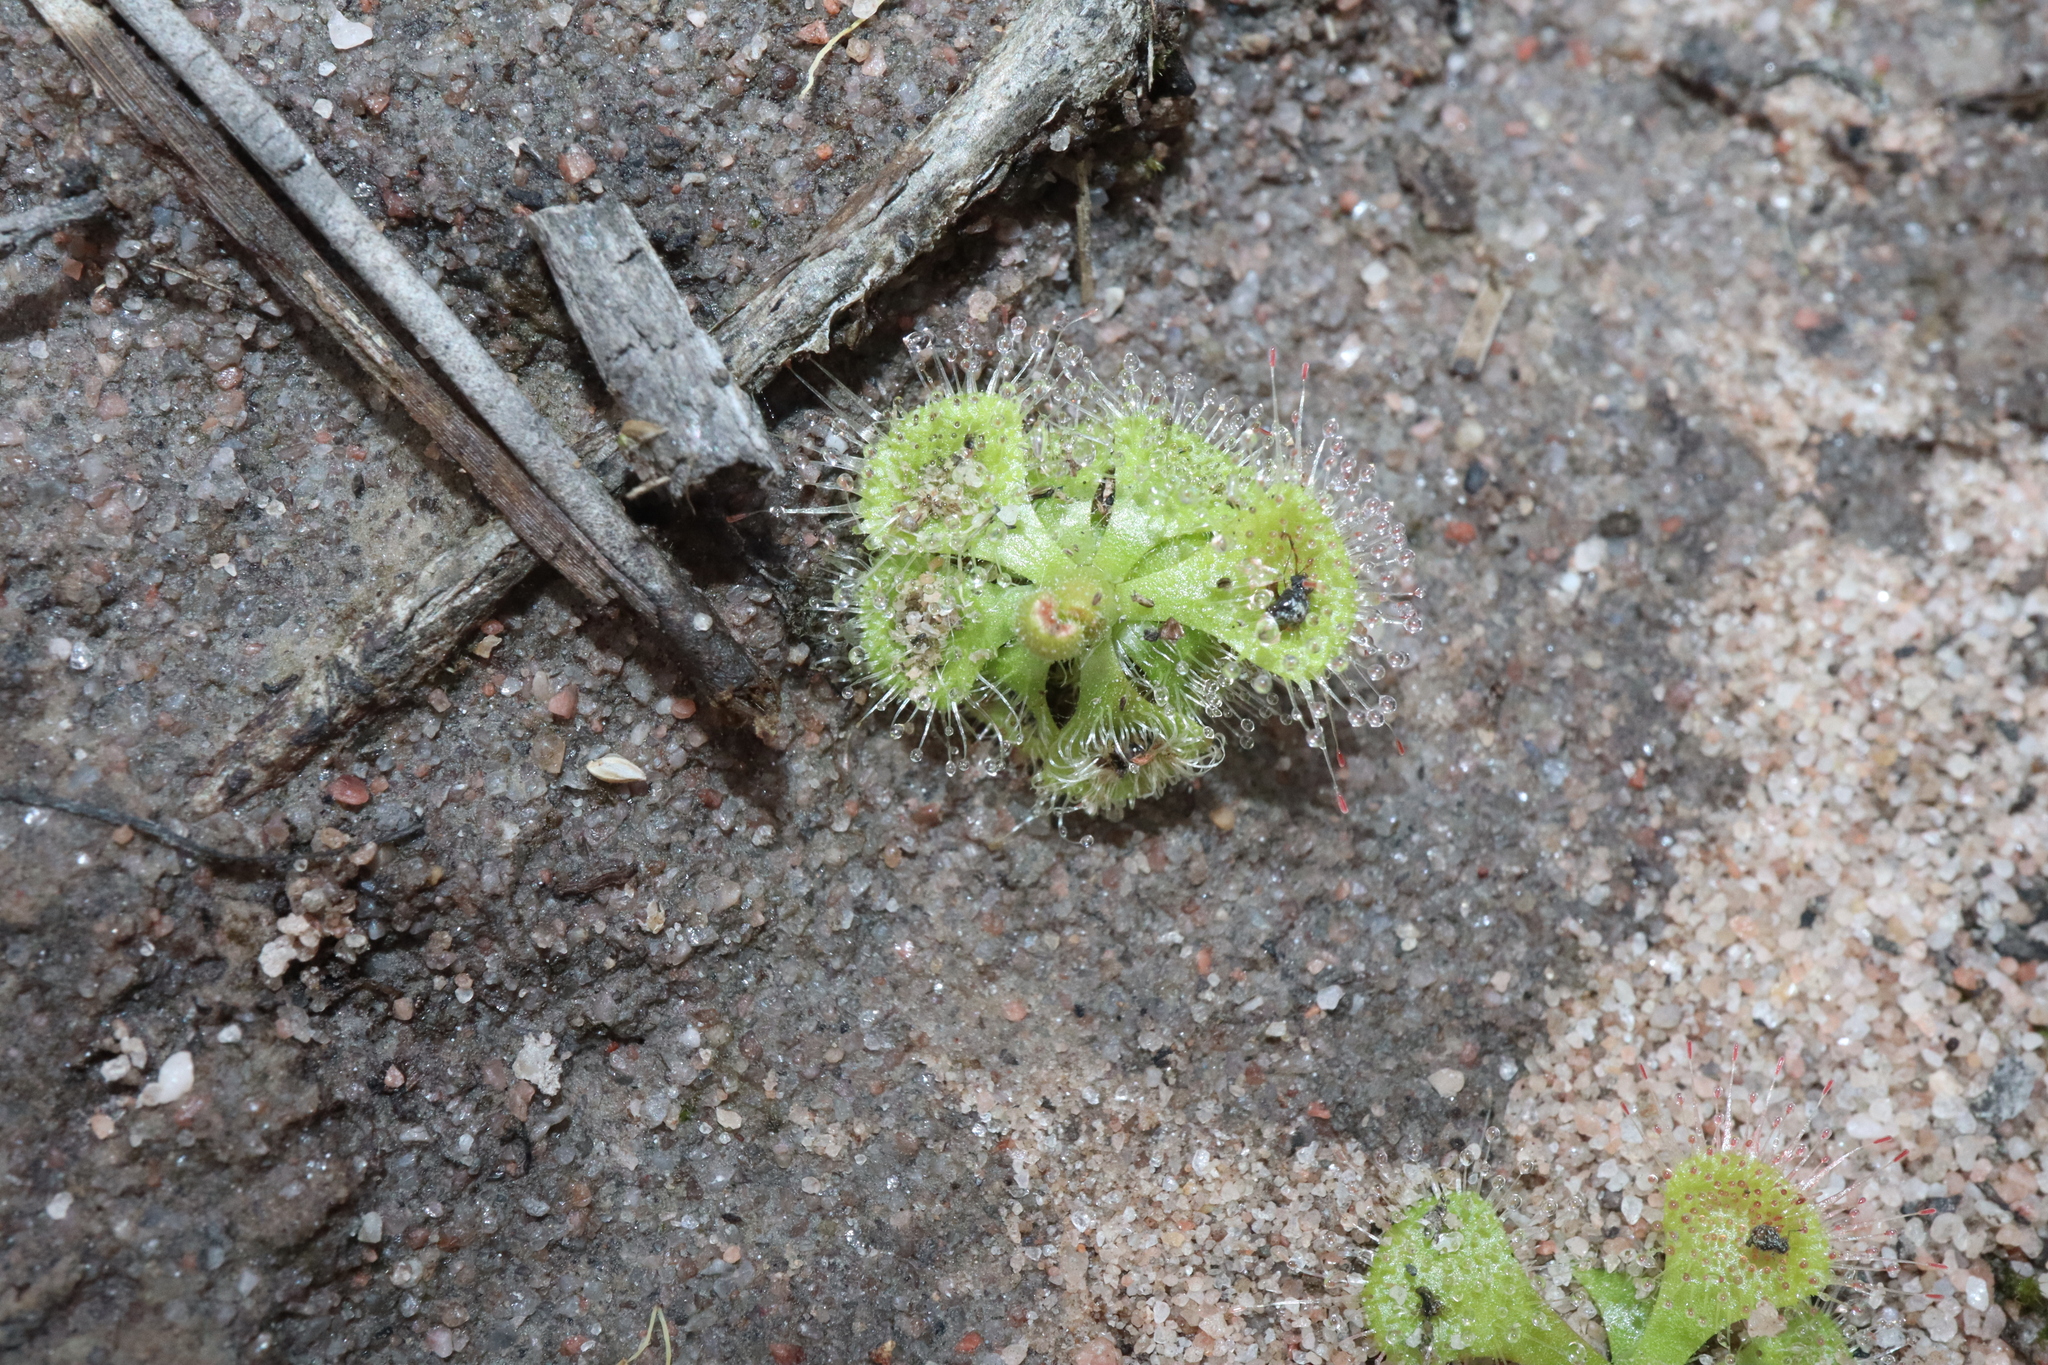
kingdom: Plantae
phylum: Tracheophyta
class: Magnoliopsida
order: Caryophyllales
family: Droseraceae
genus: Drosera
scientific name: Drosera spatulata
